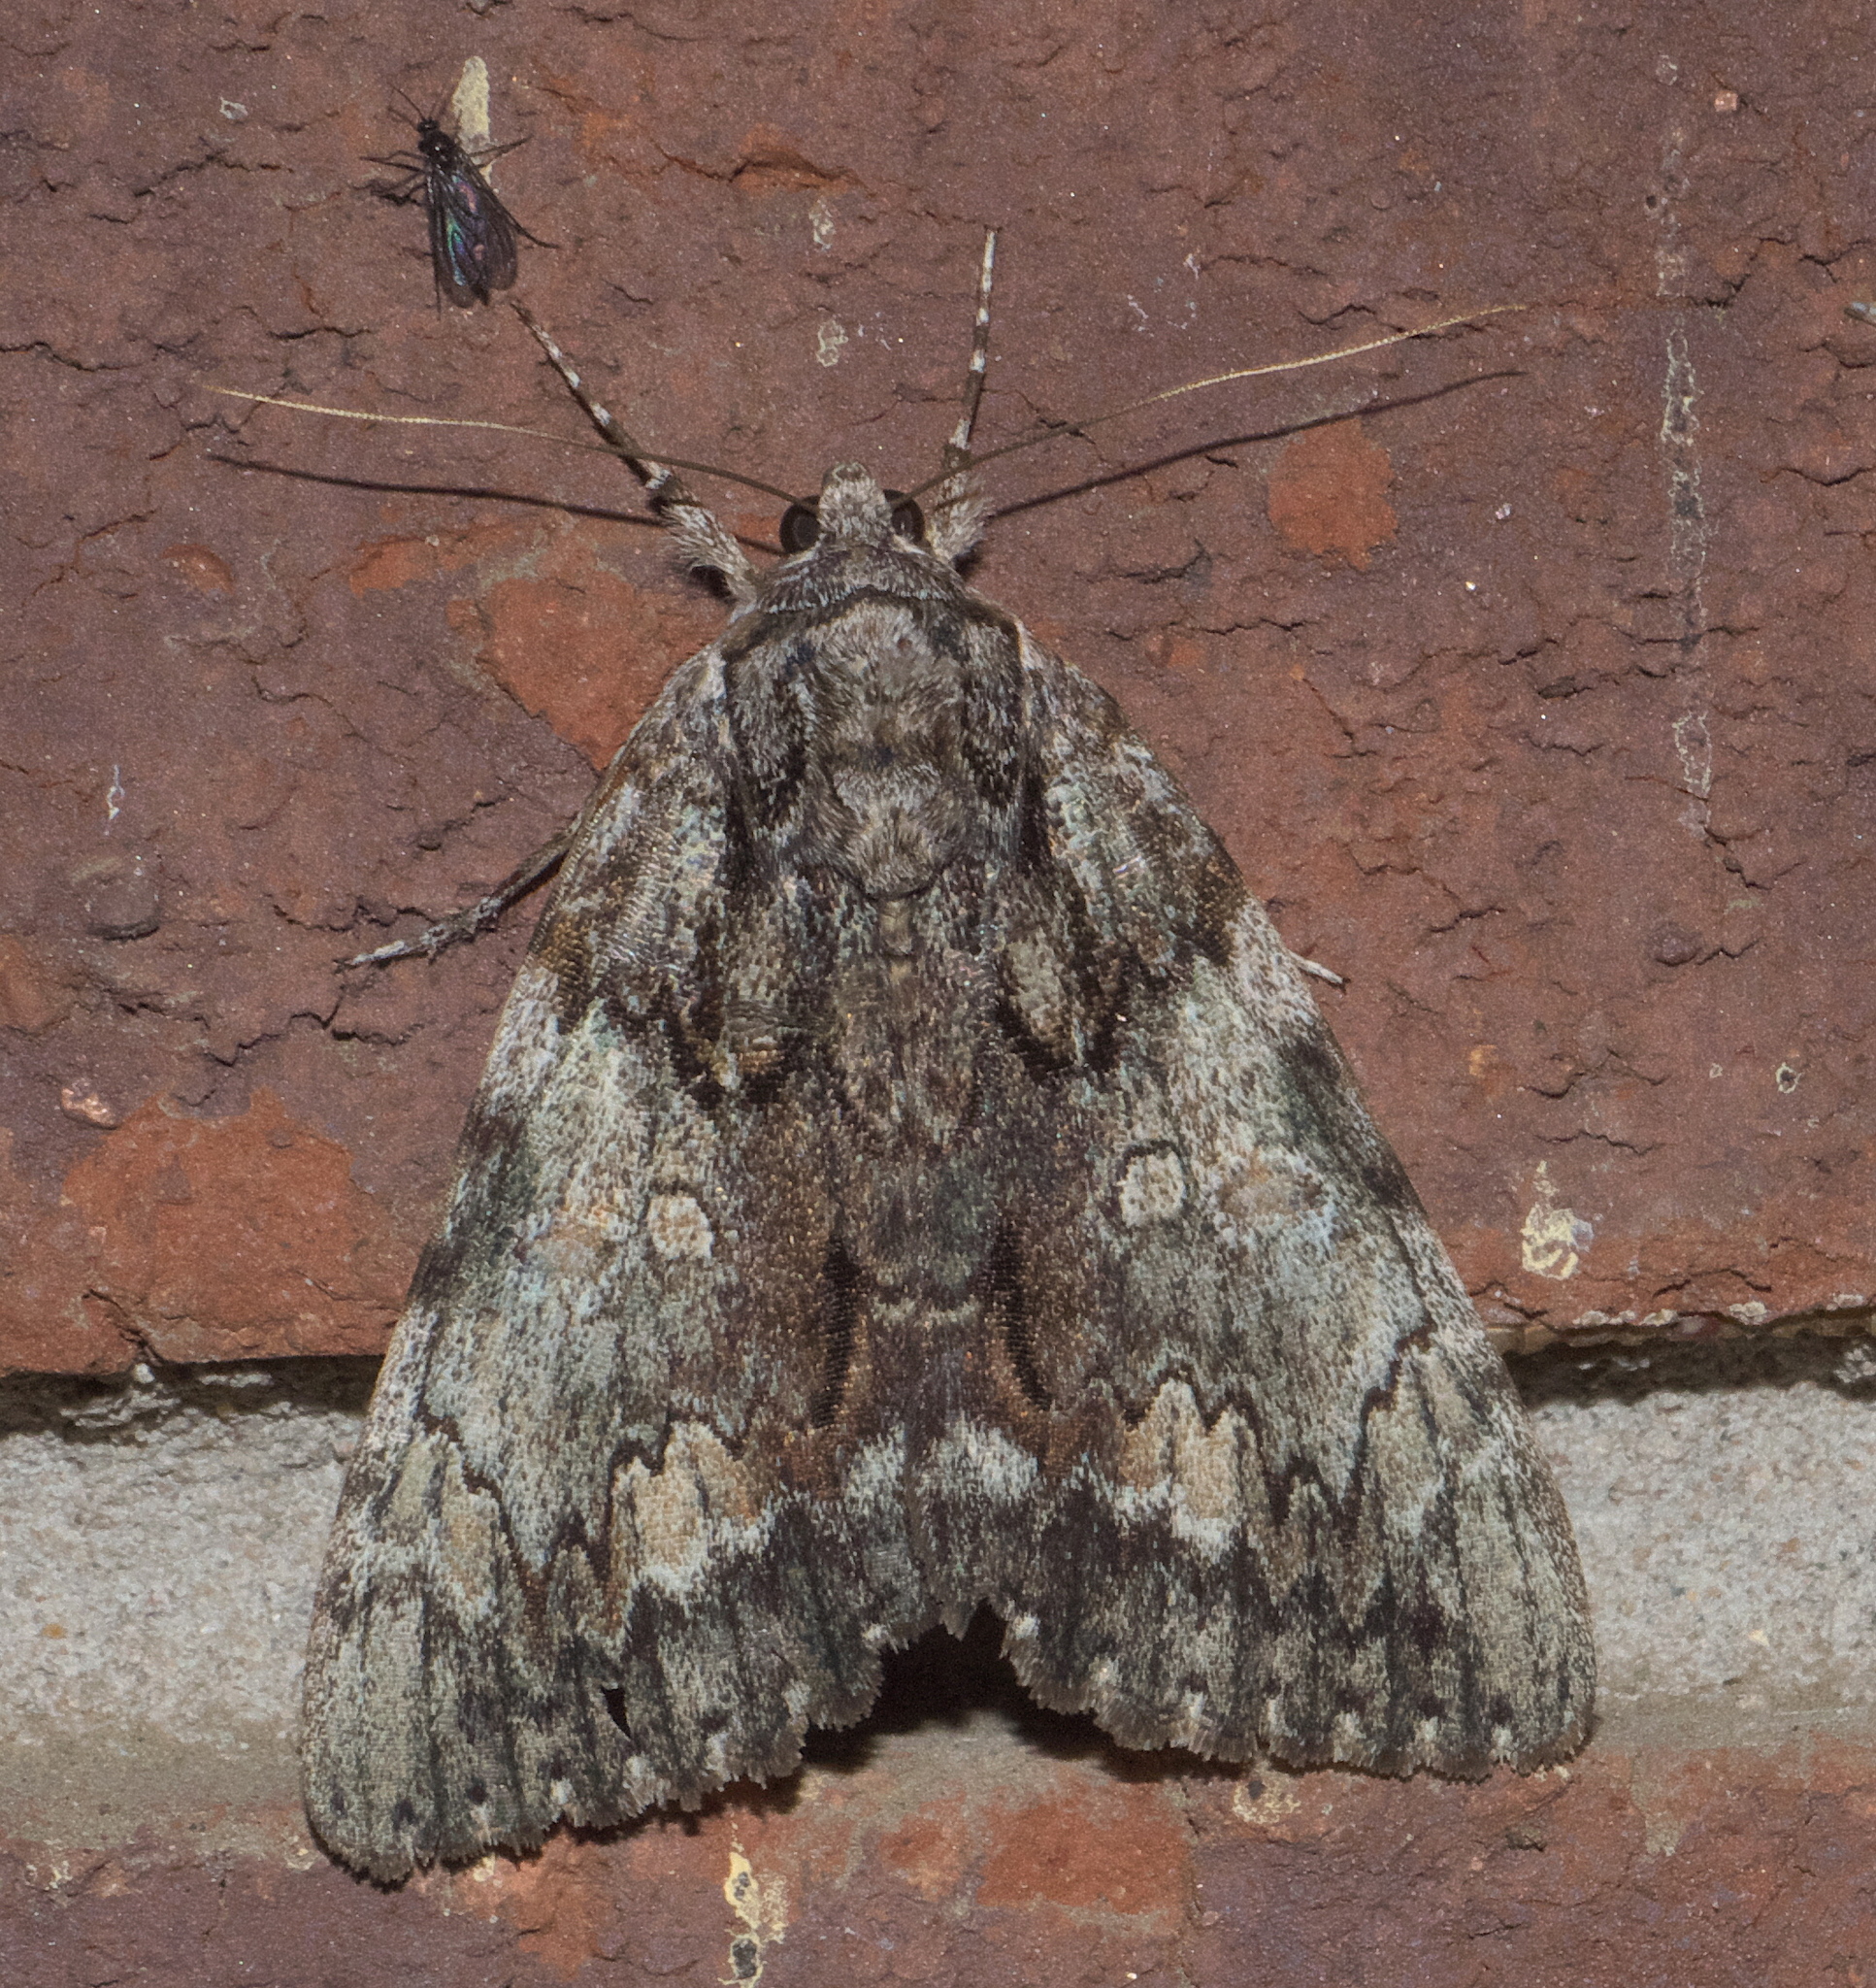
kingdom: Animalia
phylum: Arthropoda
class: Insecta
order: Lepidoptera
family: Erebidae
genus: Catocala
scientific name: Catocala palaeogama
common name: Oldwife underwing
